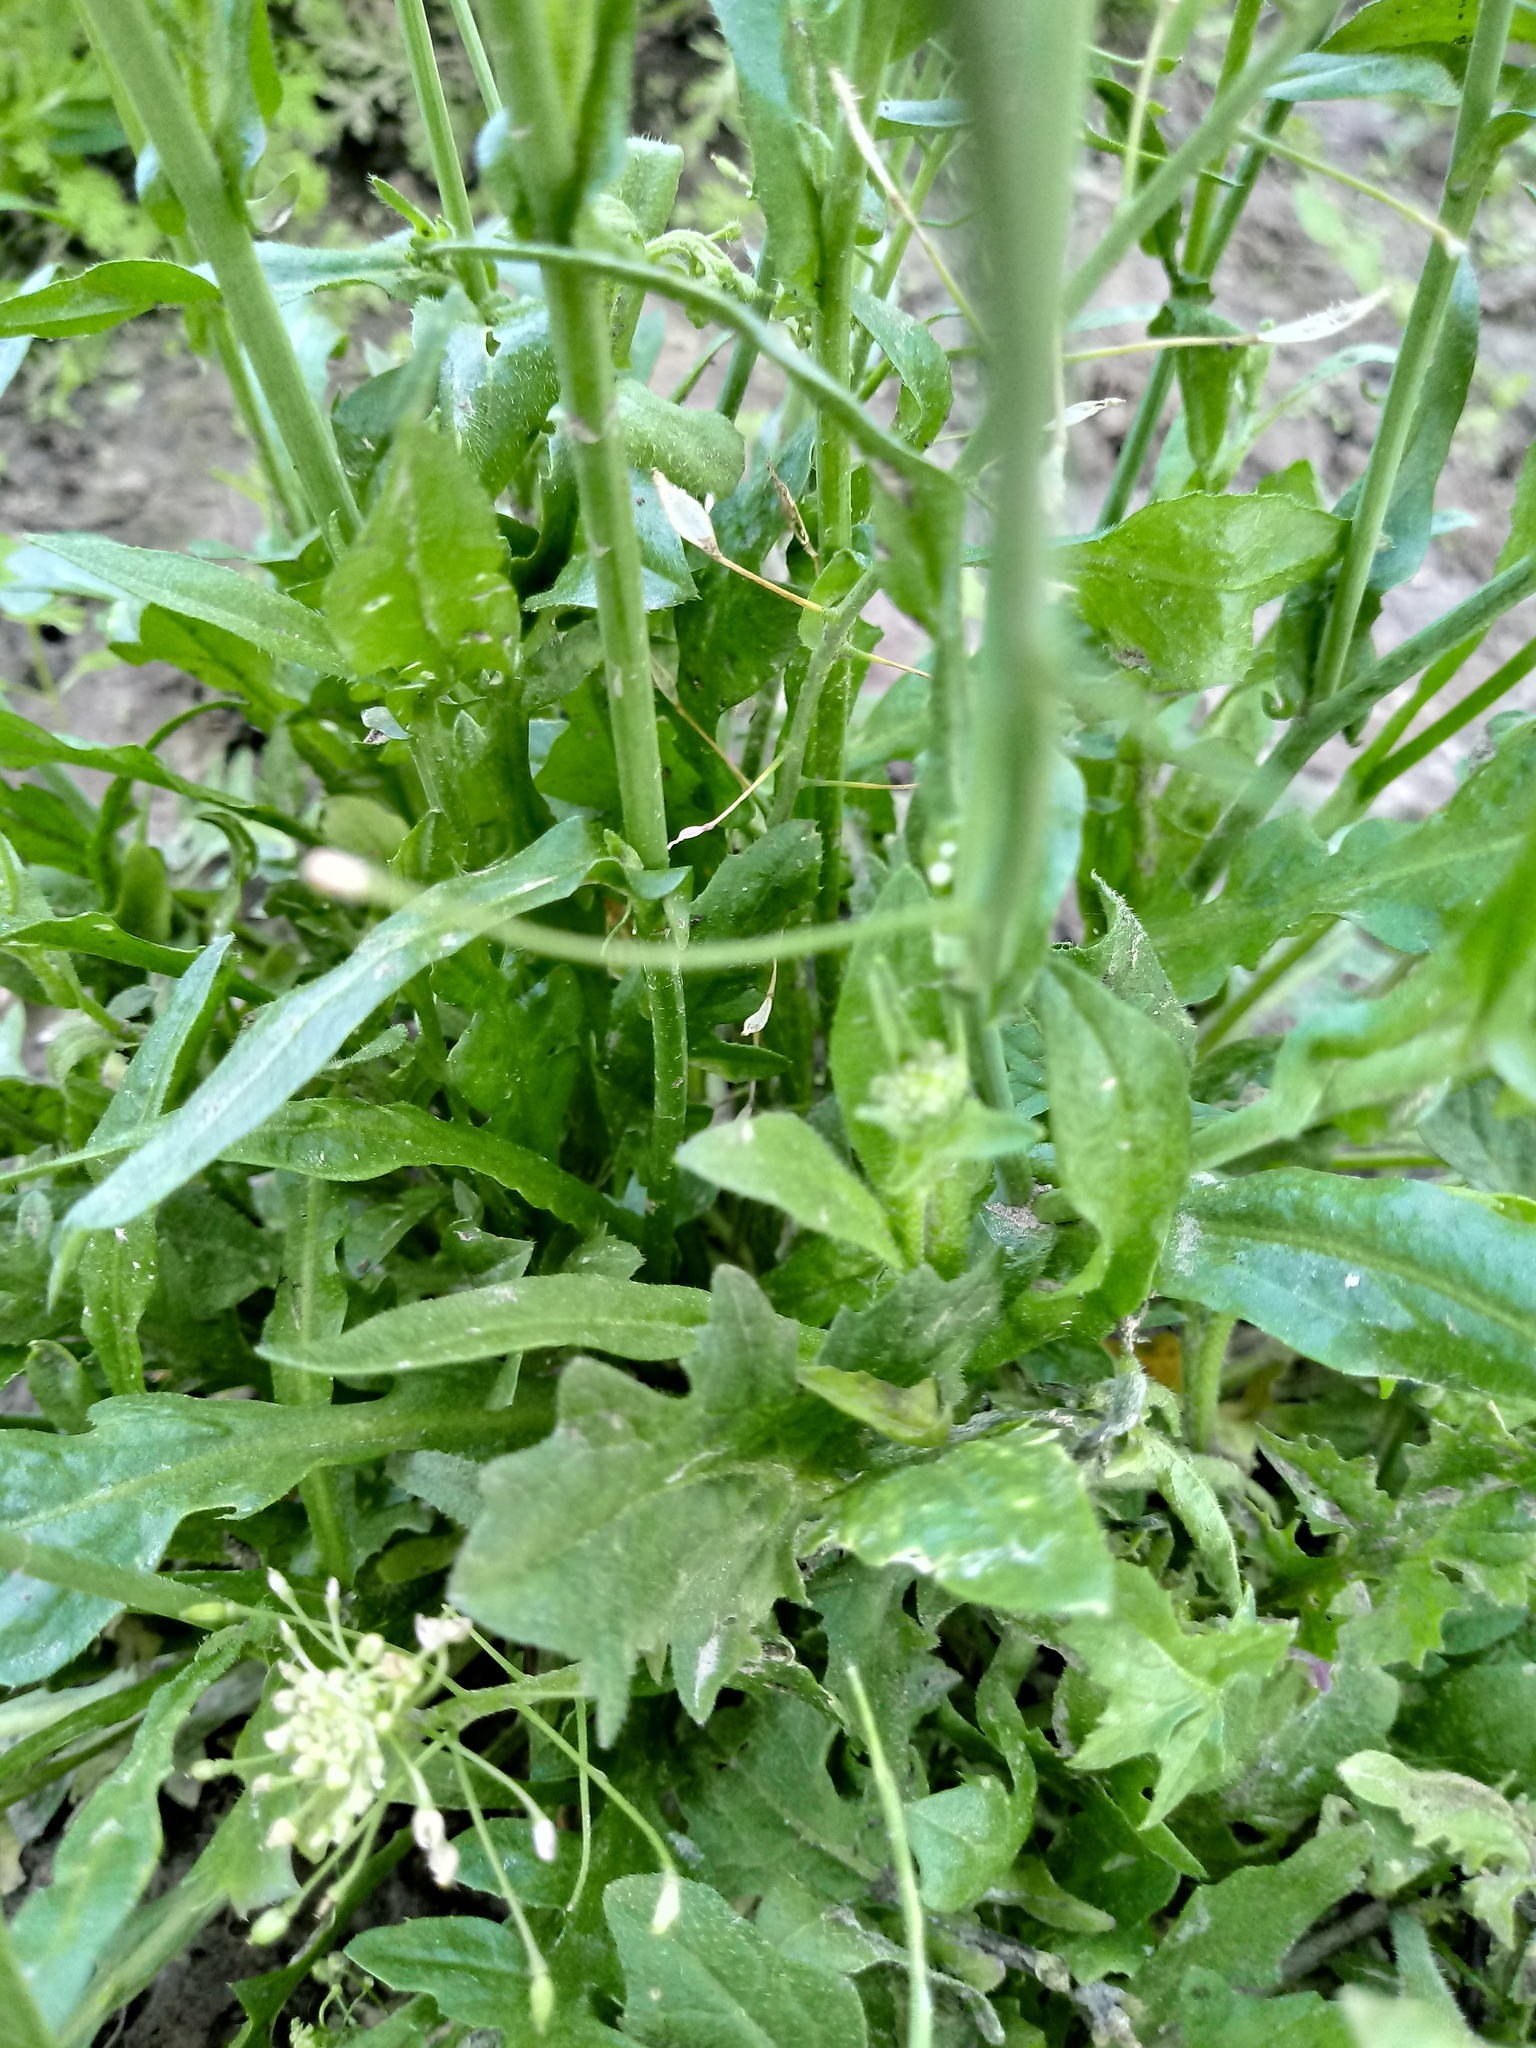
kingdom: Plantae
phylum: Tracheophyta
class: Magnoliopsida
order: Brassicales
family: Brassicaceae
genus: Capsella
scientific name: Capsella bursa-pastoris
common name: Shepherd's purse
